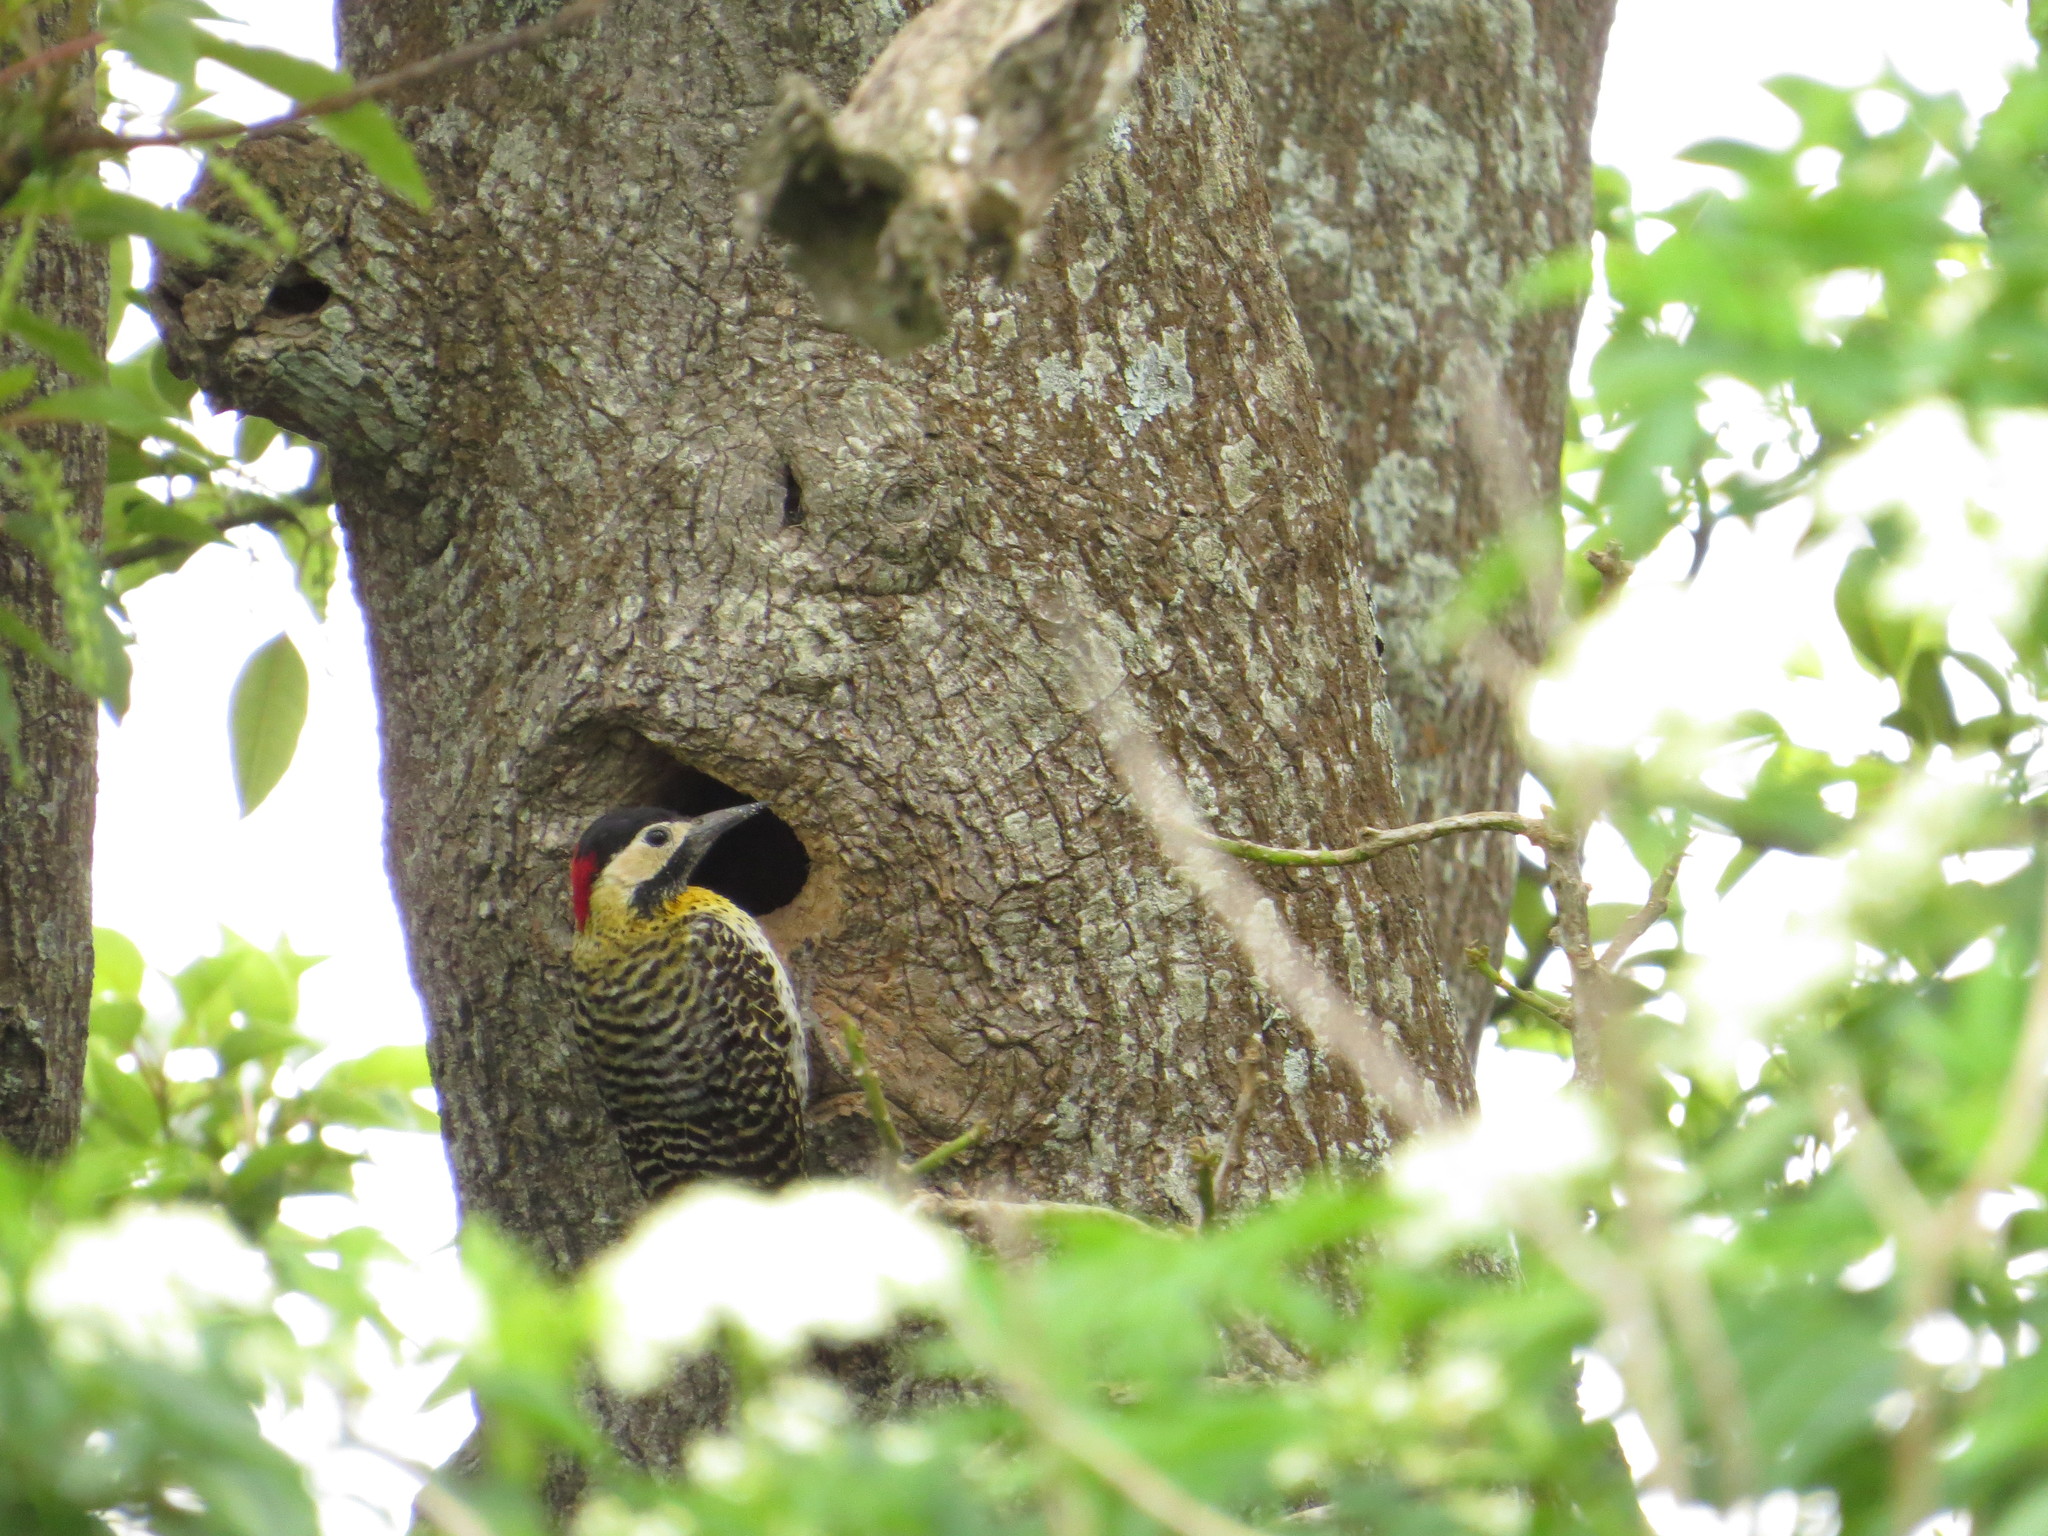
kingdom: Animalia
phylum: Chordata
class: Aves
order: Piciformes
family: Picidae
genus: Colaptes
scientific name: Colaptes melanochloros
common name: Green-barred woodpecker
